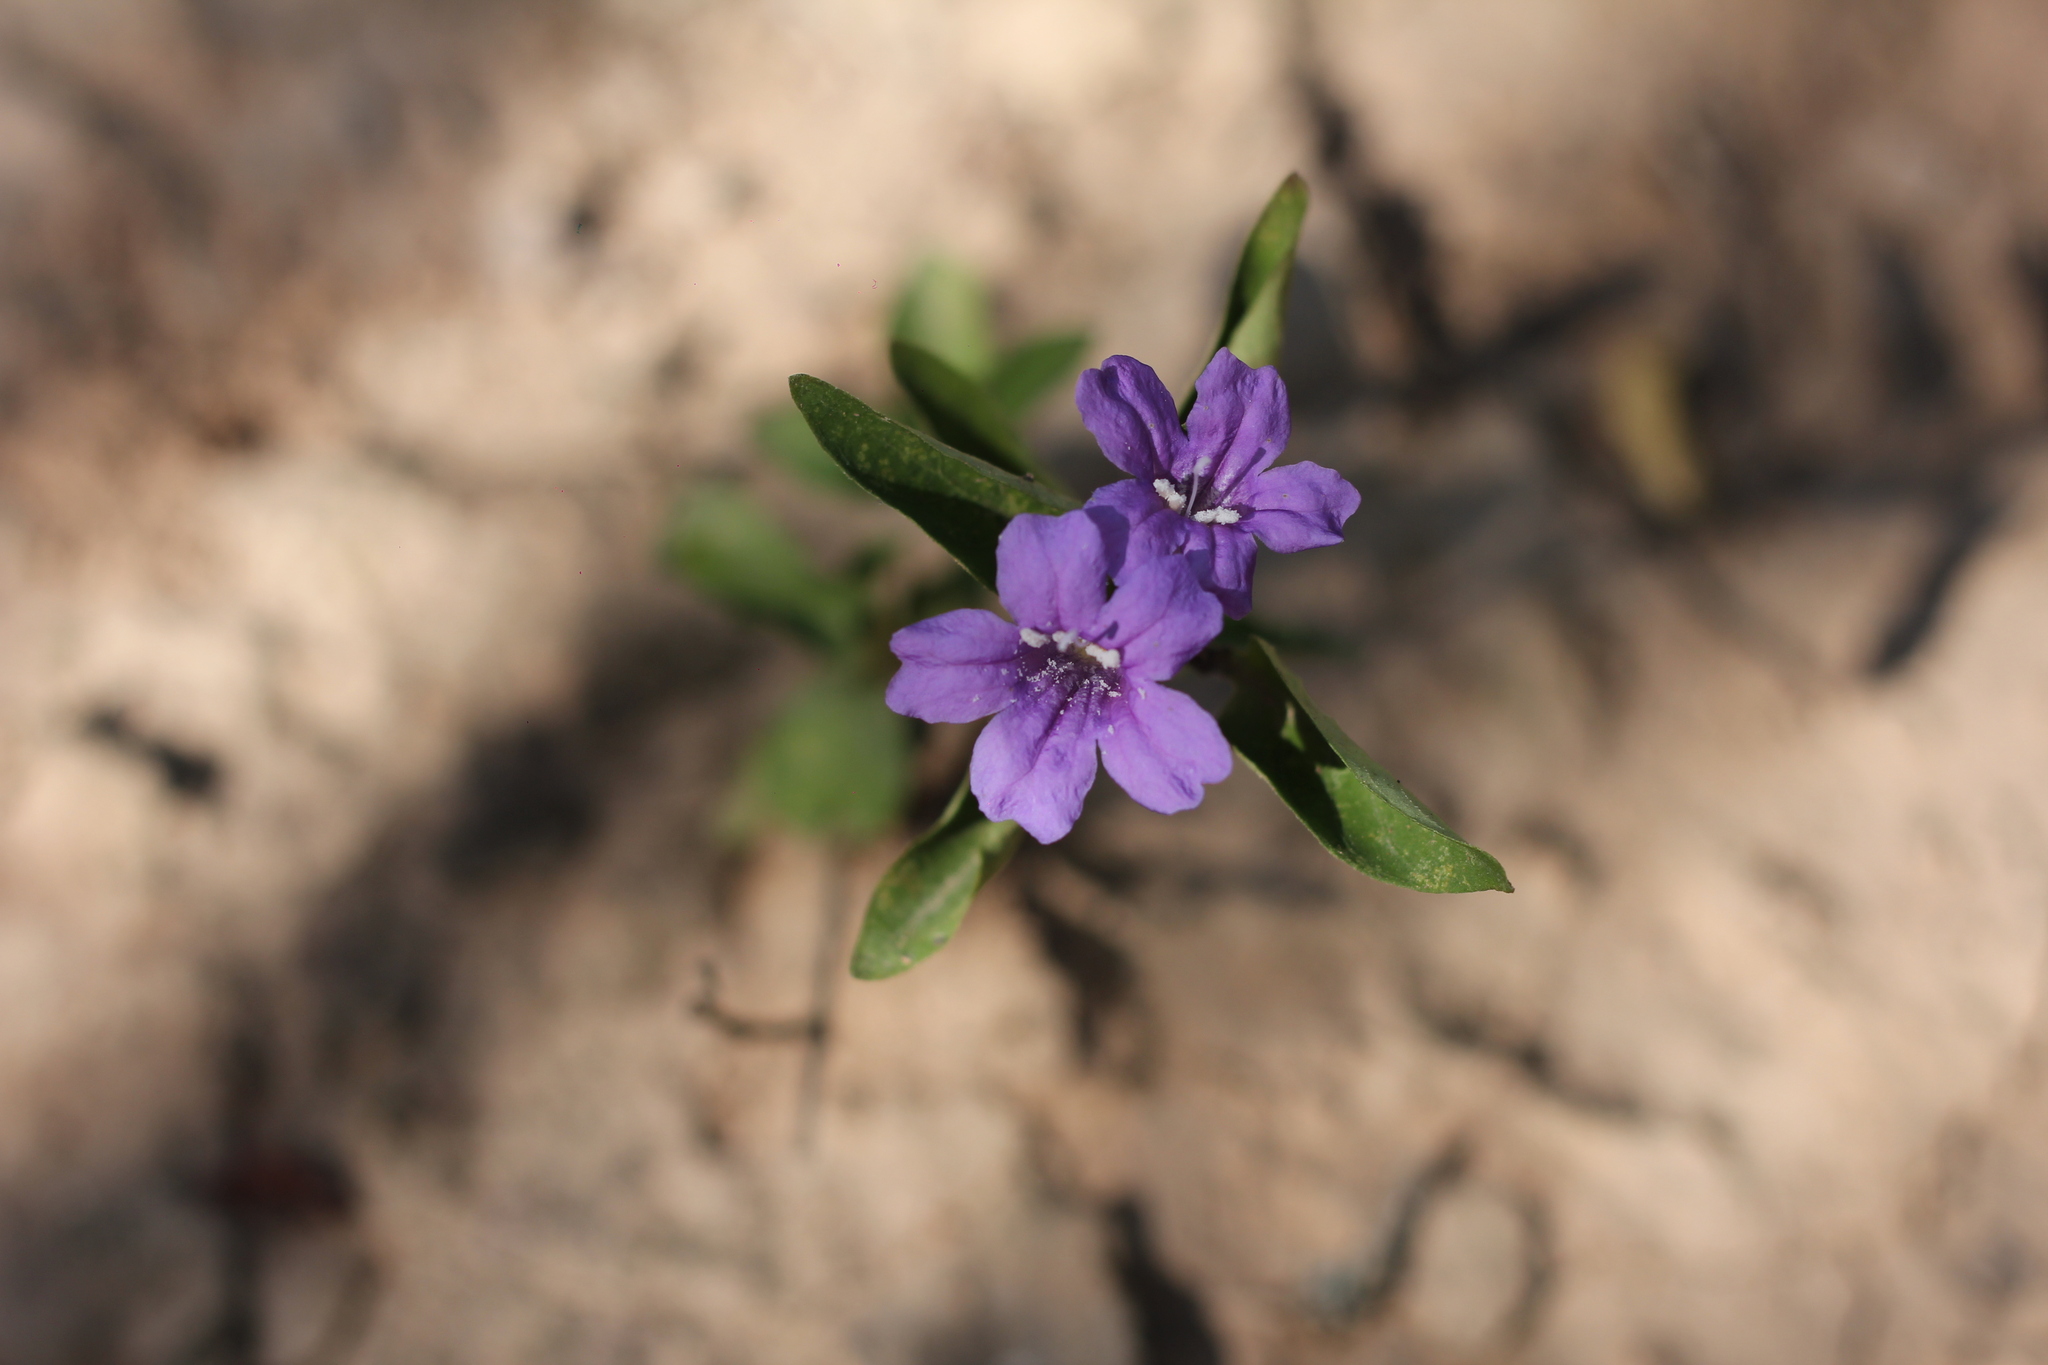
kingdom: Plantae
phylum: Tracheophyta
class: Magnoliopsida
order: Lamiales
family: Acanthaceae
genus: Ruellia
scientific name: Ruellia erythropus
